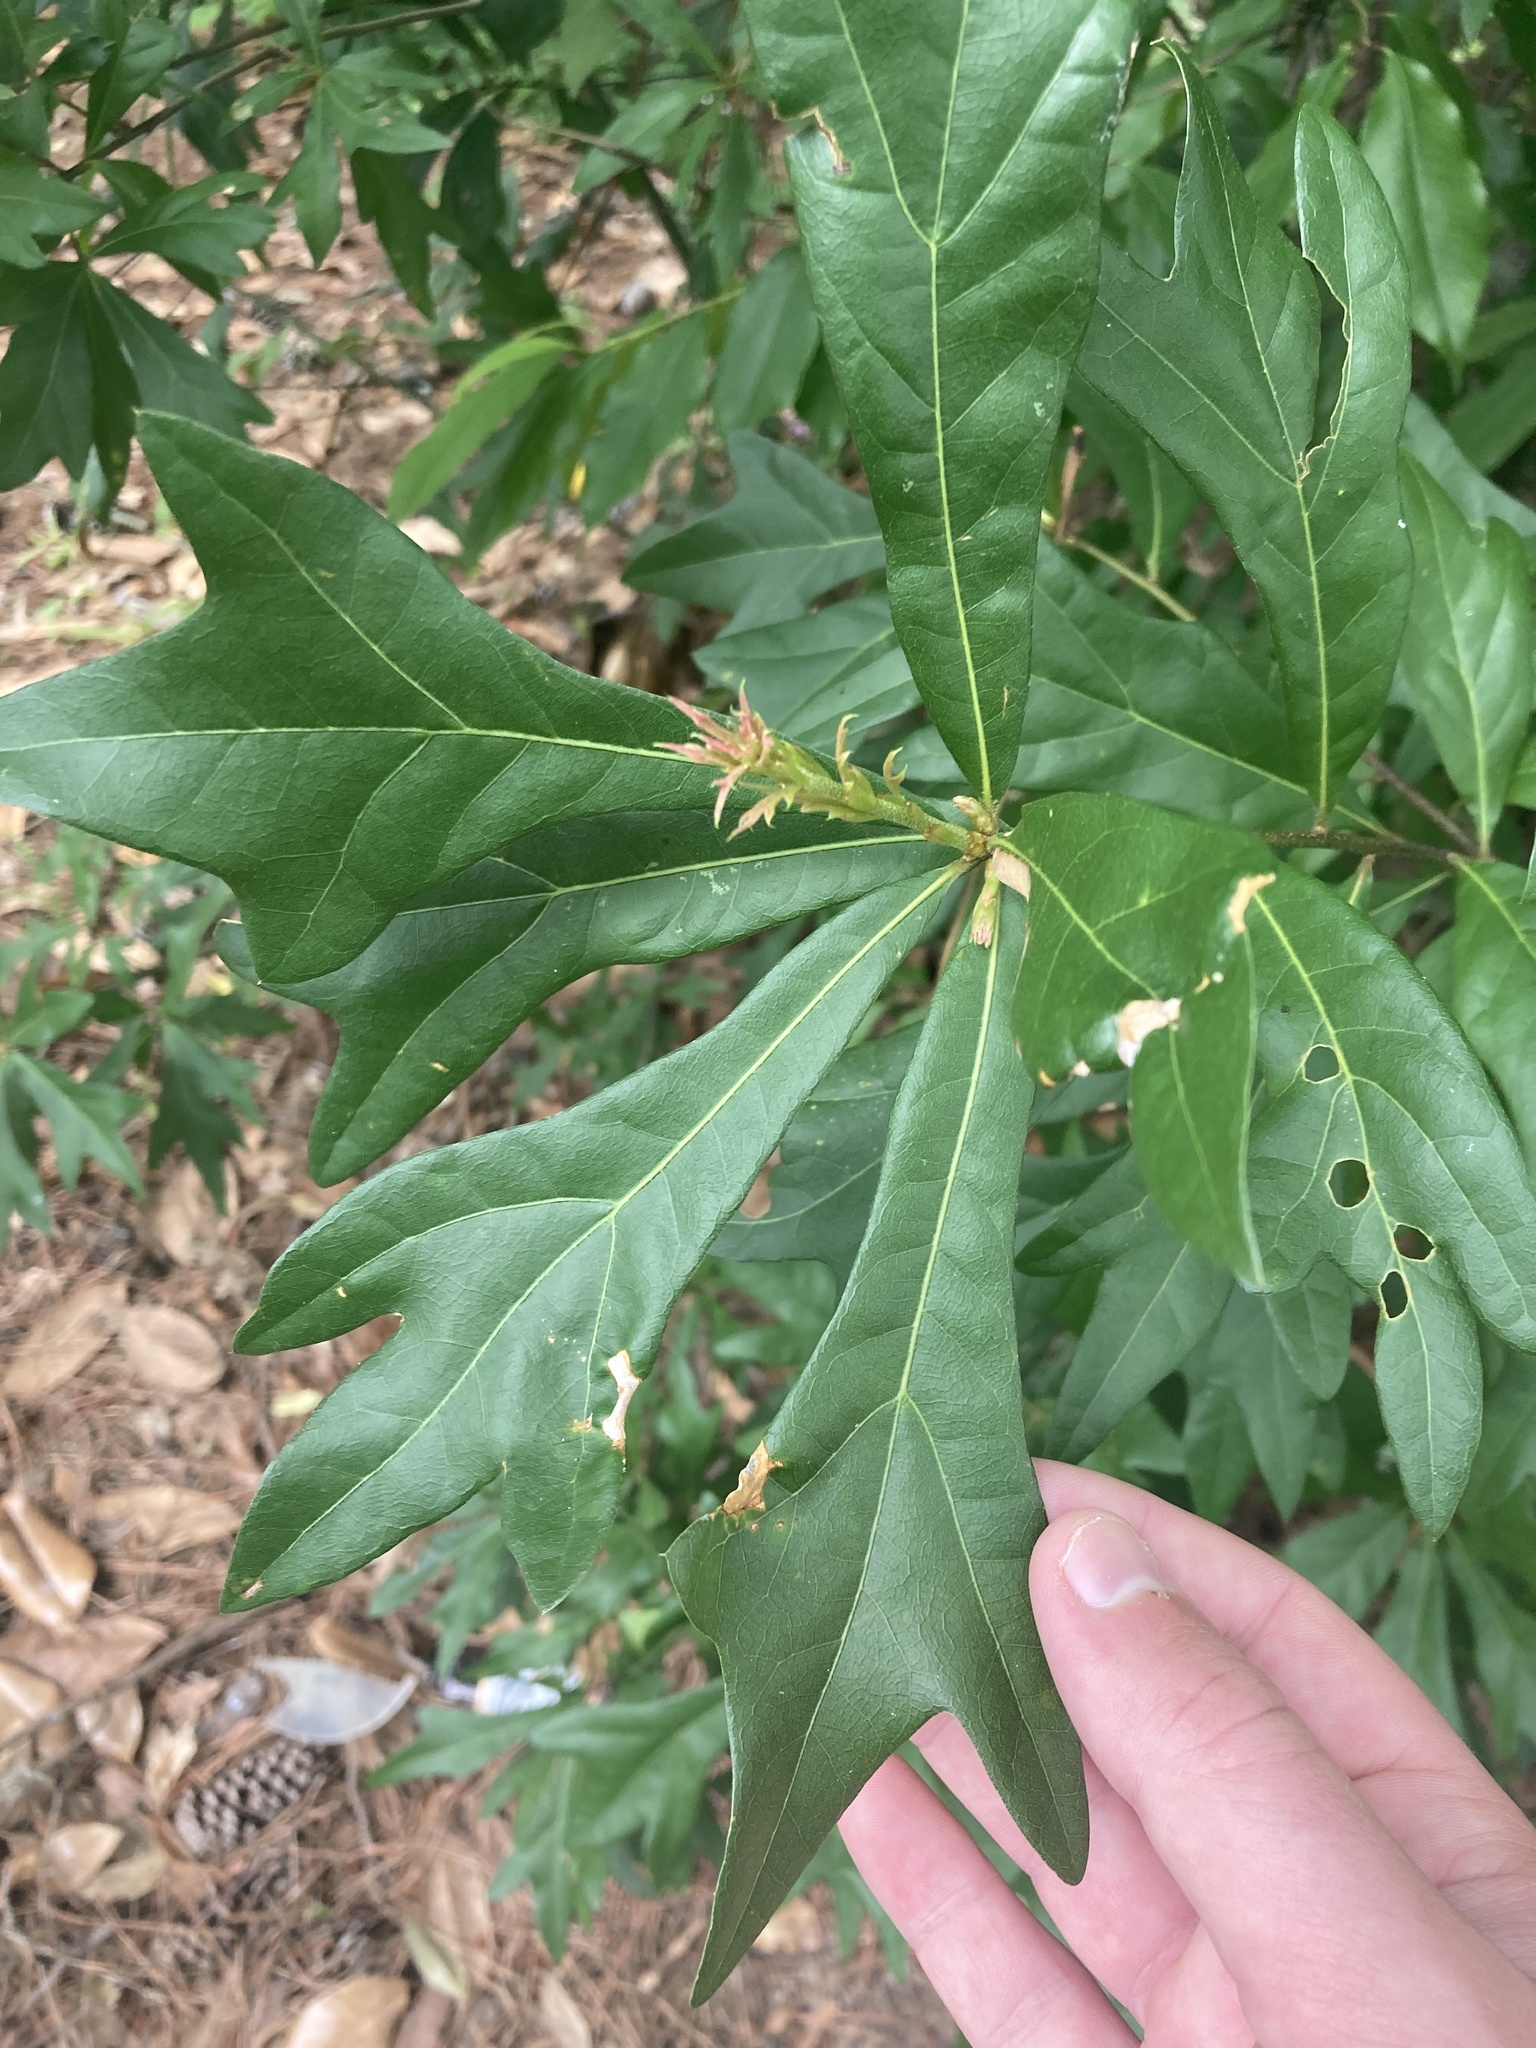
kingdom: Plantae
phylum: Tracheophyta
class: Magnoliopsida
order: Fagales
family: Fagaceae
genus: Quercus
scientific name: Quercus nigra
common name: Water oak
